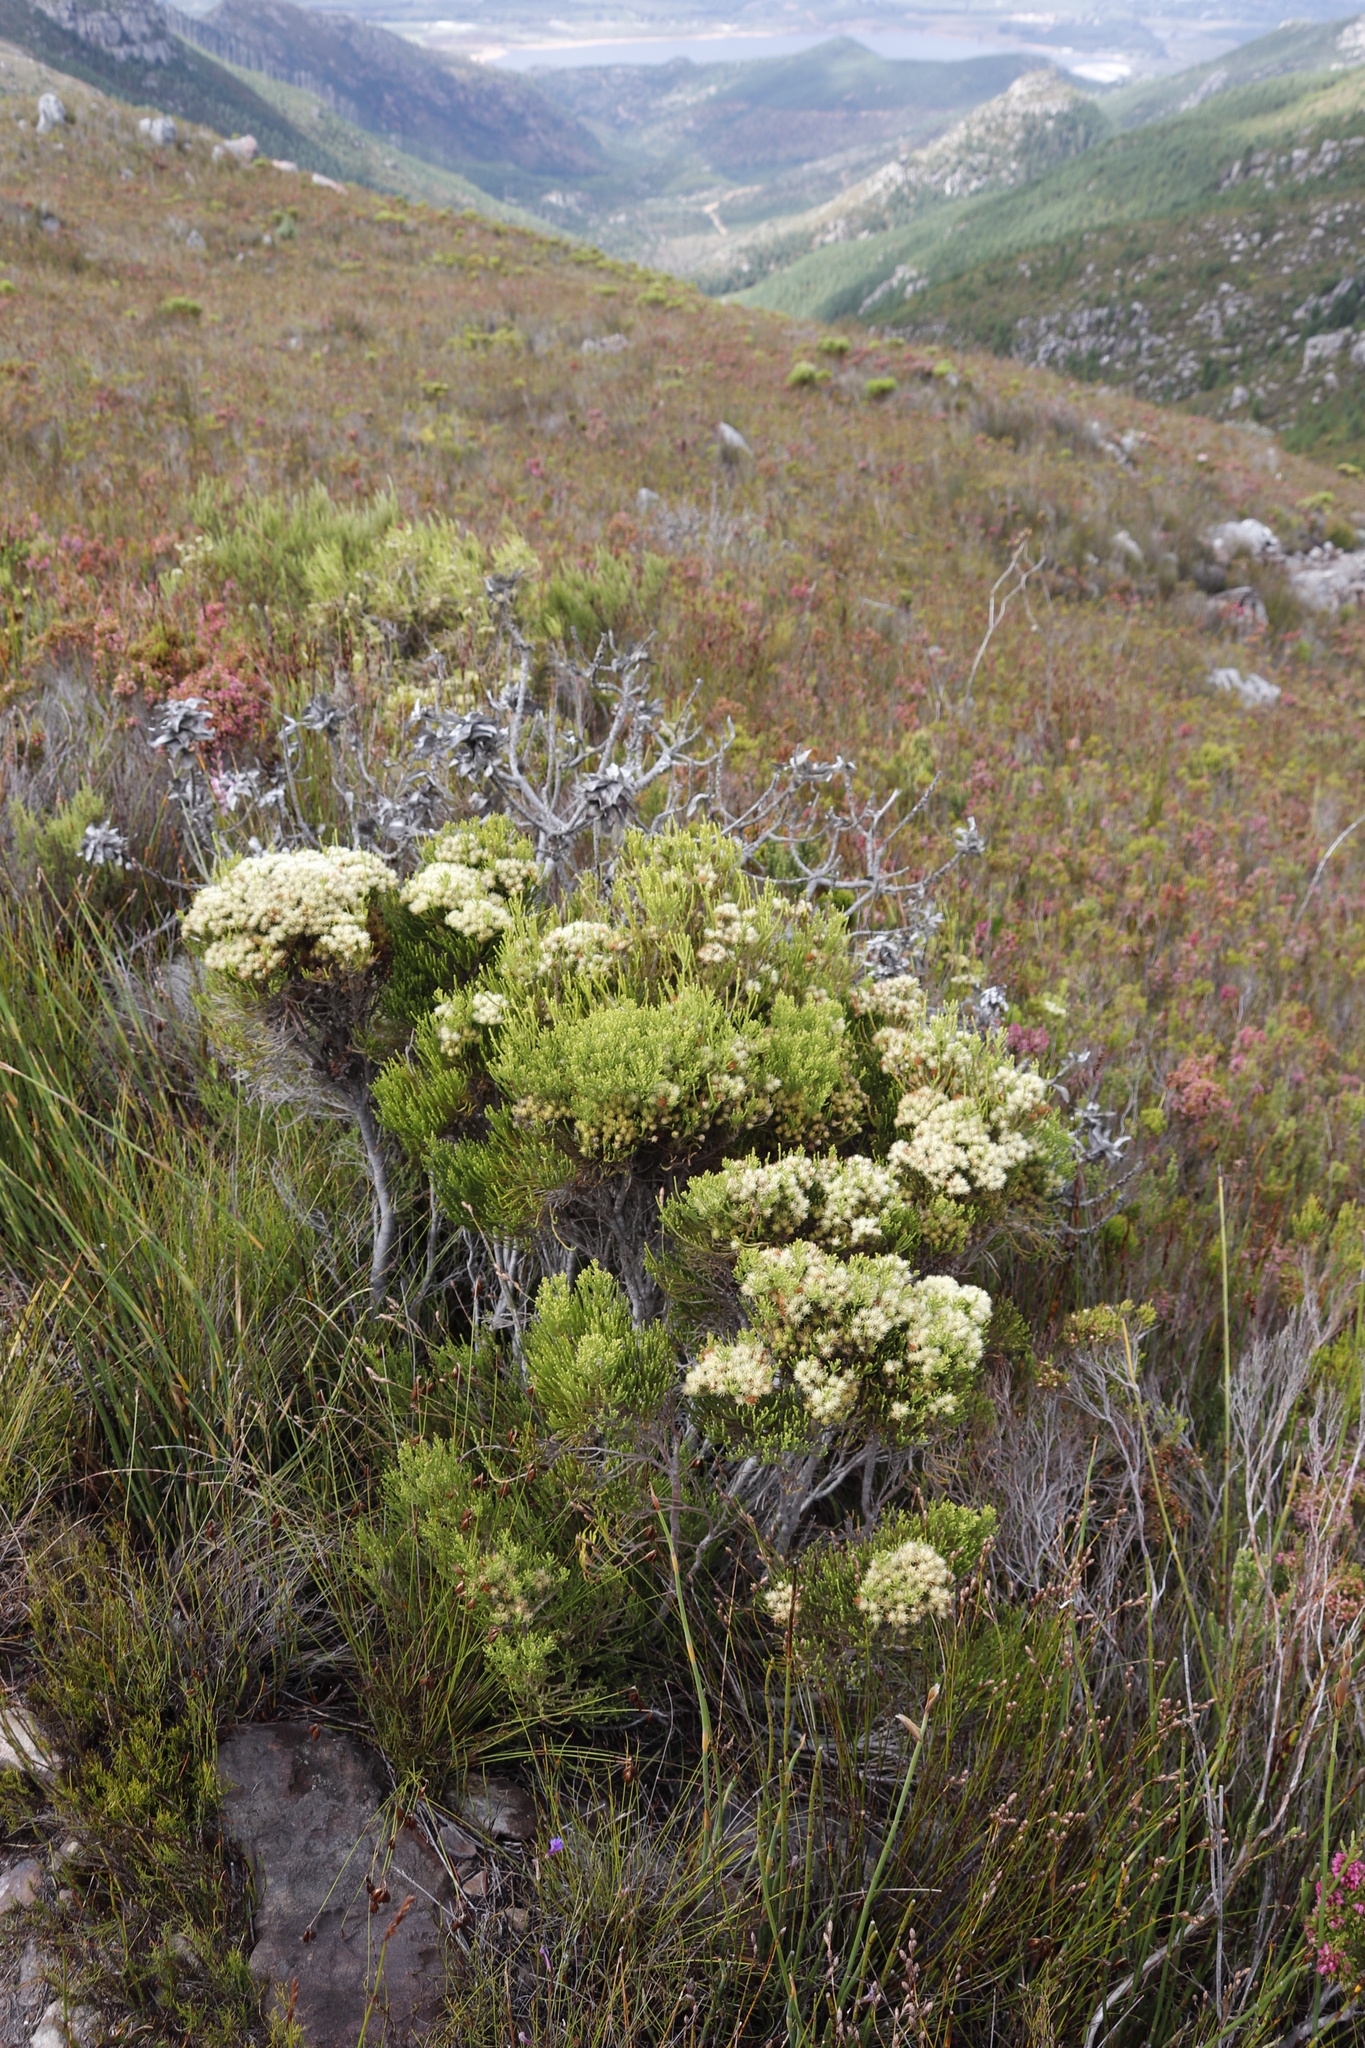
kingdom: Plantae
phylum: Tracheophyta
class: Magnoliopsida
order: Bruniales
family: Bruniaceae
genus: Brunia
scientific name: Brunia paleacea
